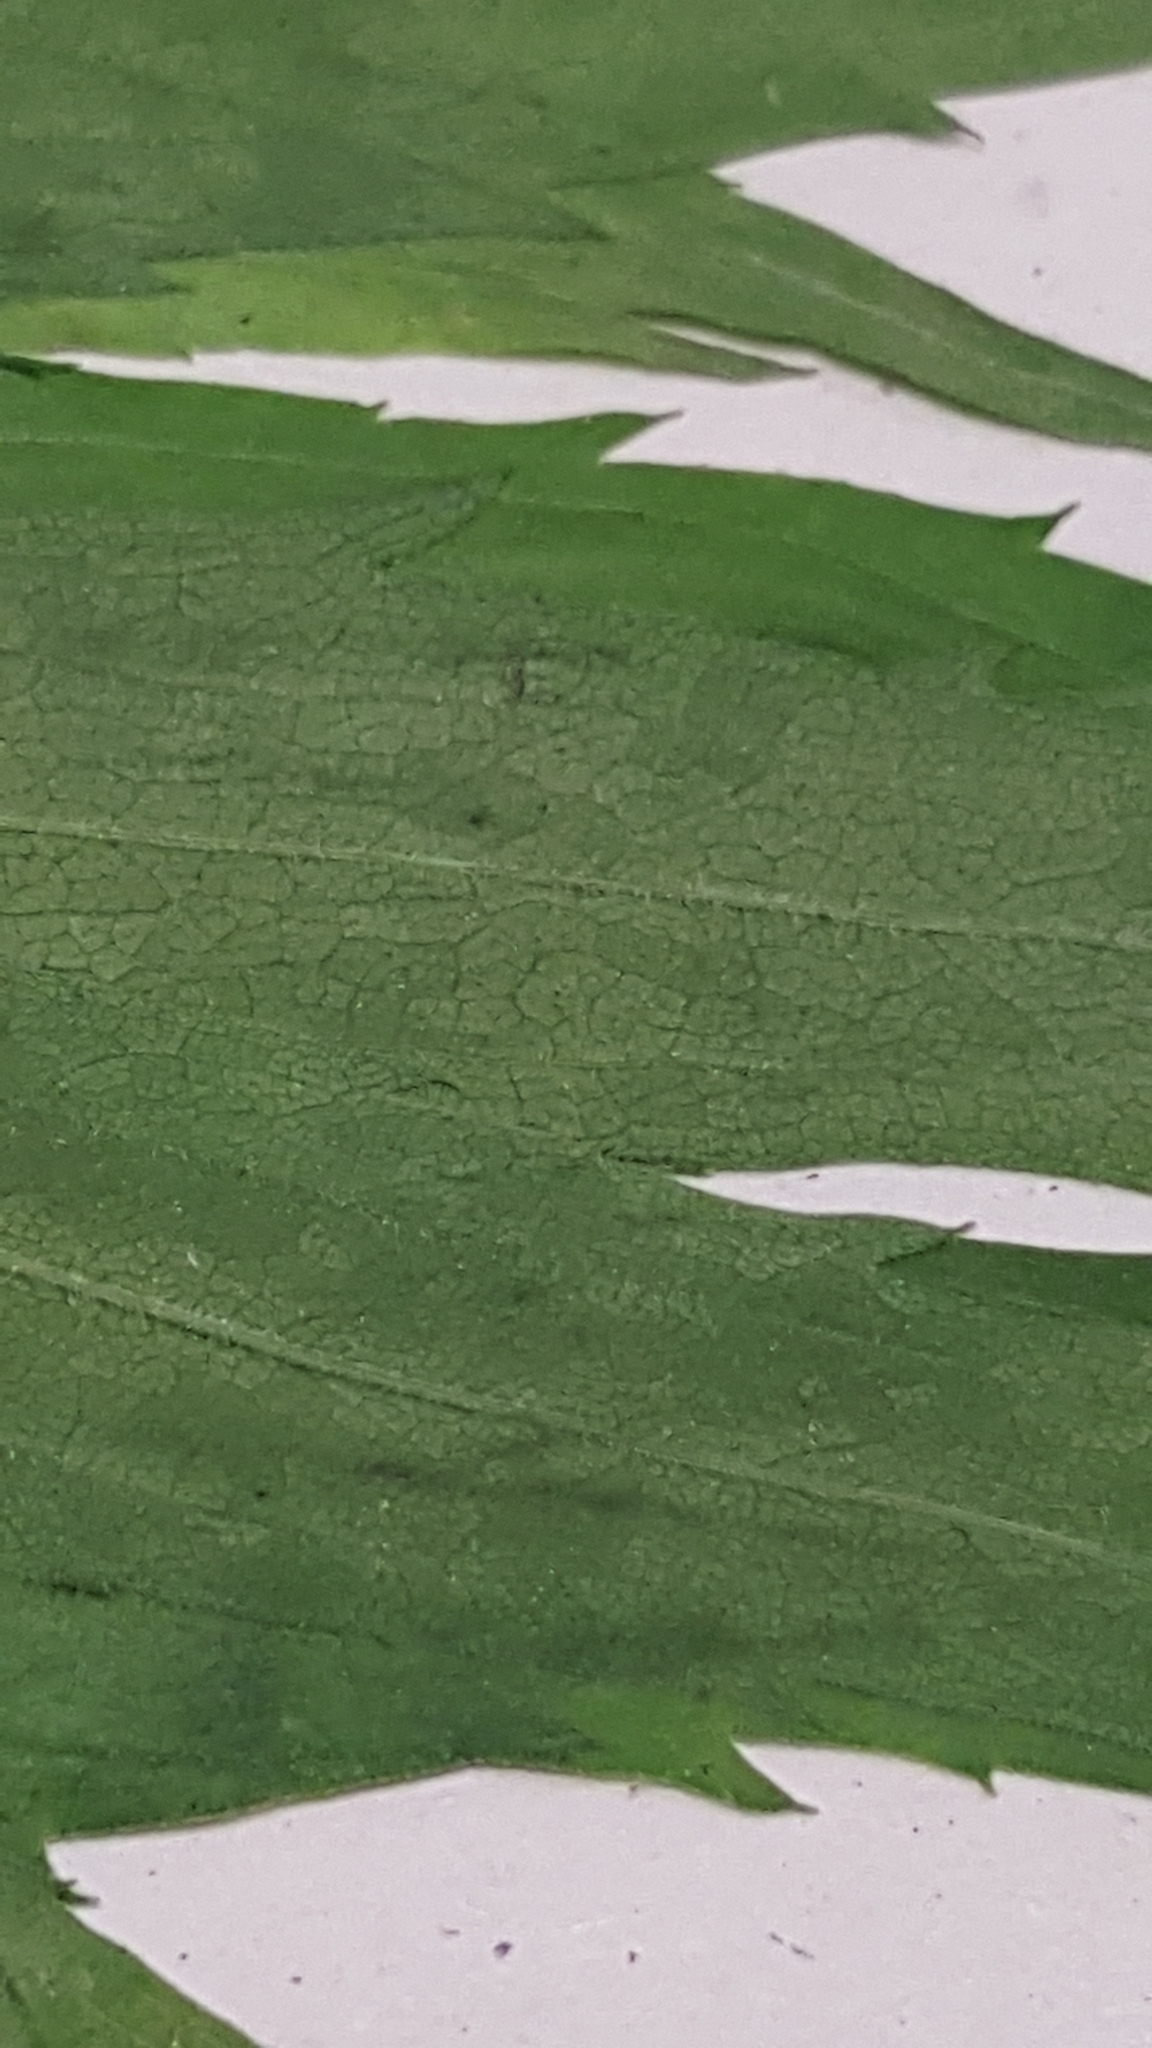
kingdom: Plantae
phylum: Tracheophyta
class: Magnoliopsida
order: Asterales
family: Asteraceae
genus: Solidago
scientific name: Solidago canadensis
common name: Canada goldenrod
